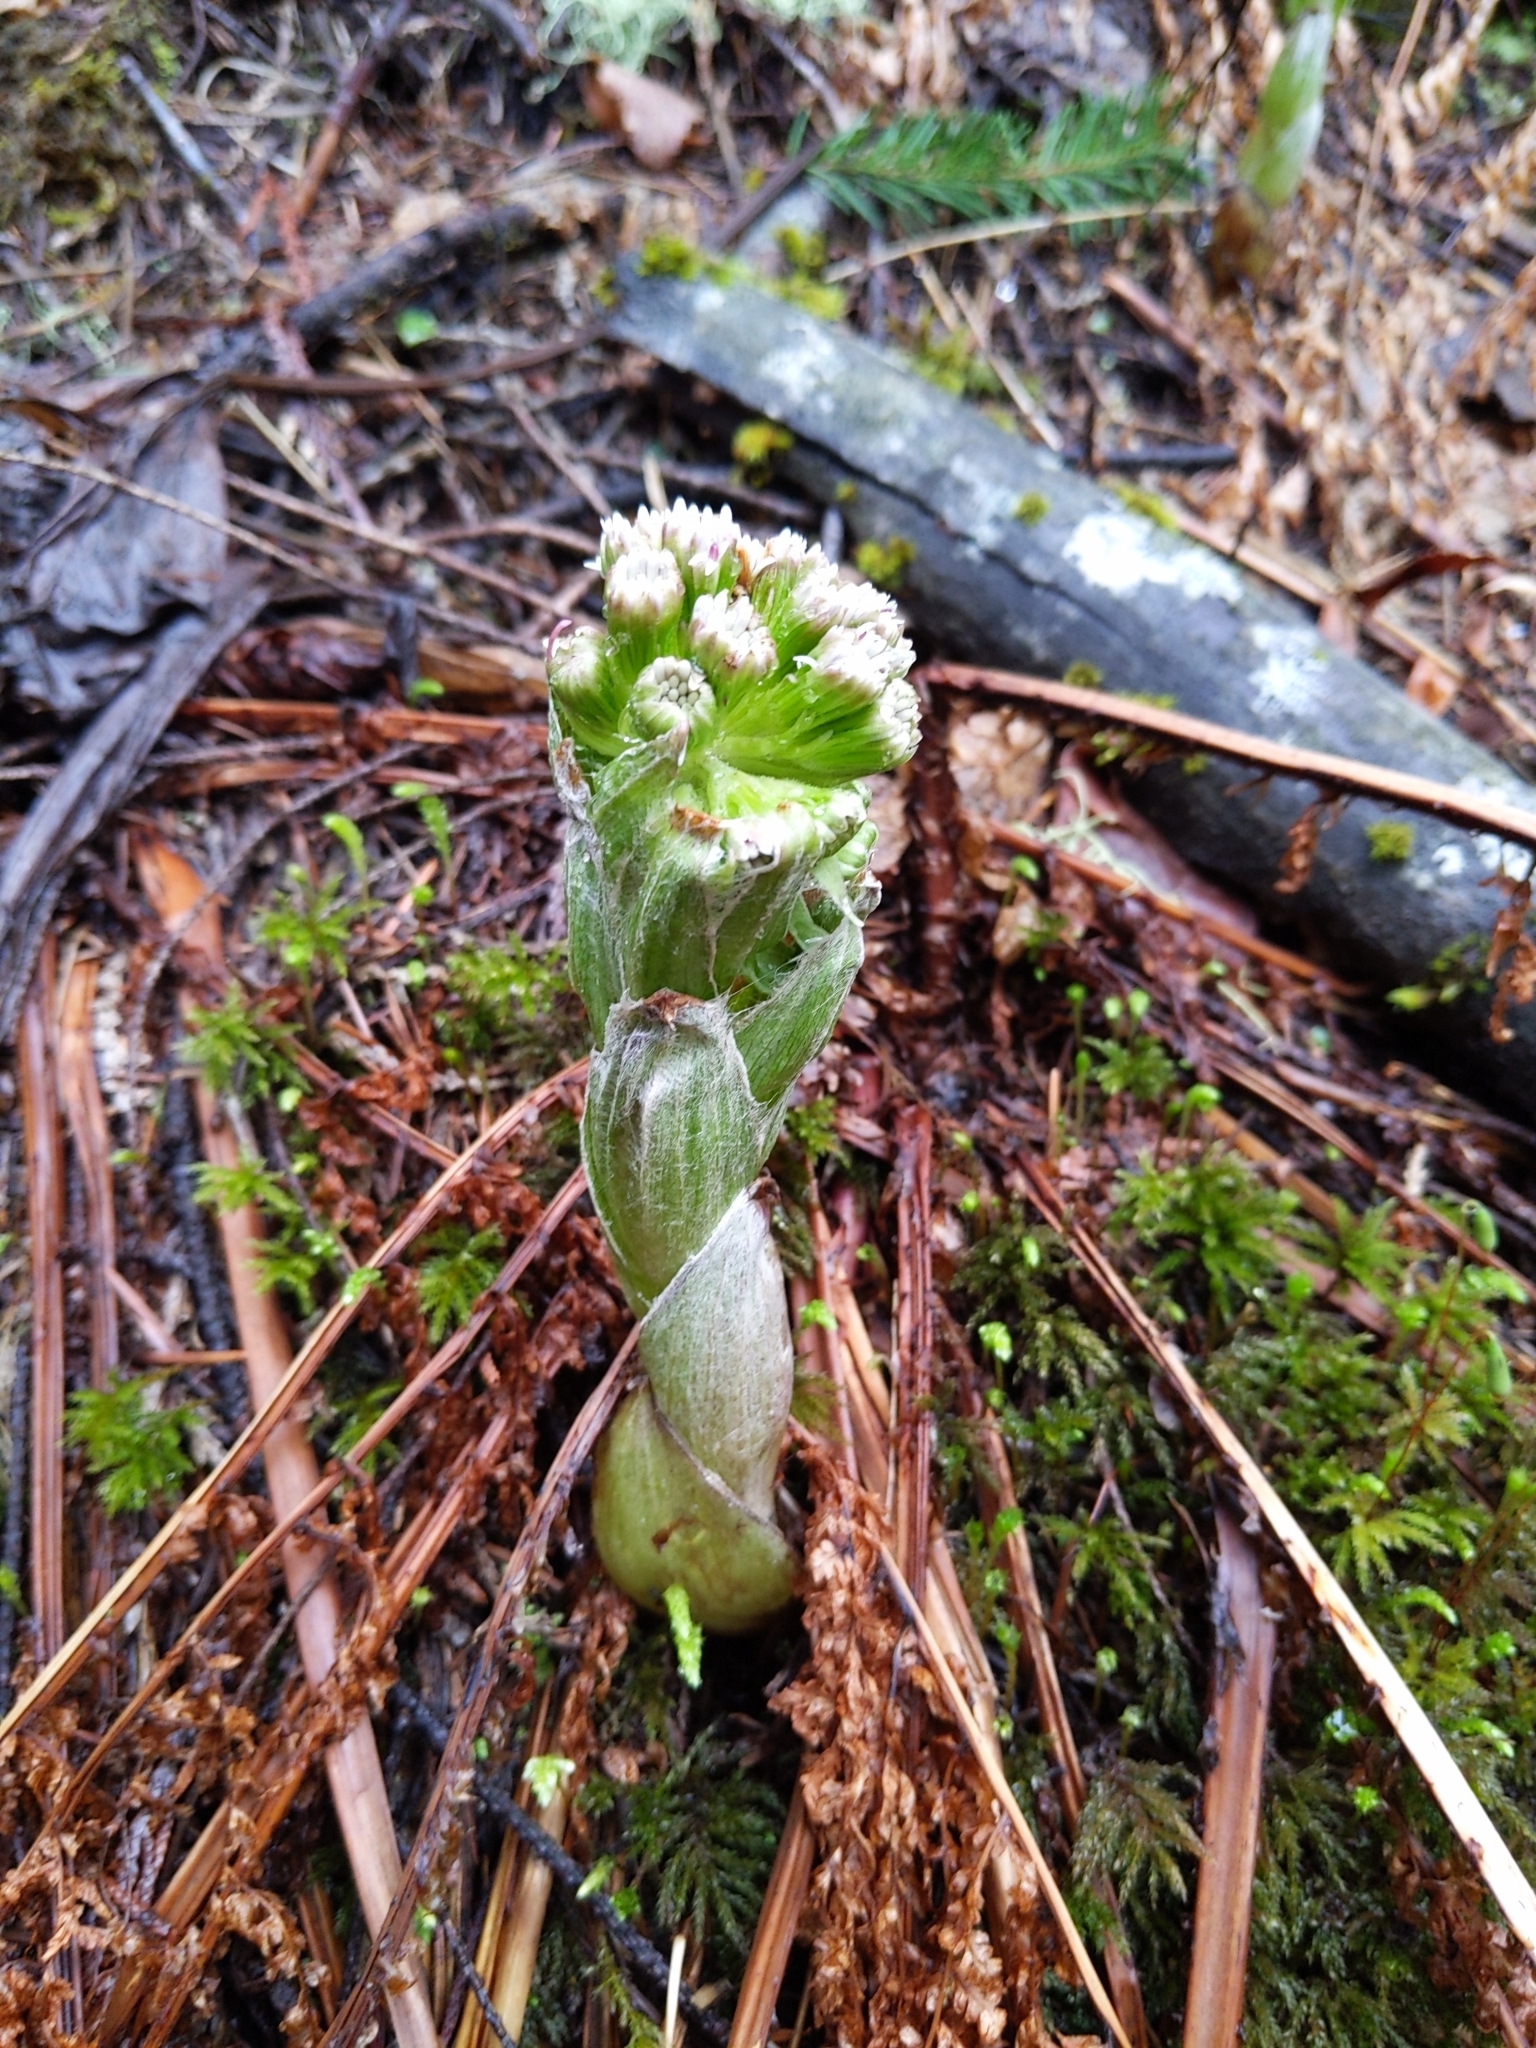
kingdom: Plantae
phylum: Tracheophyta
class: Magnoliopsida
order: Asterales
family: Asteraceae
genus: Petasites
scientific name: Petasites frigidus
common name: Arctic butterbur
